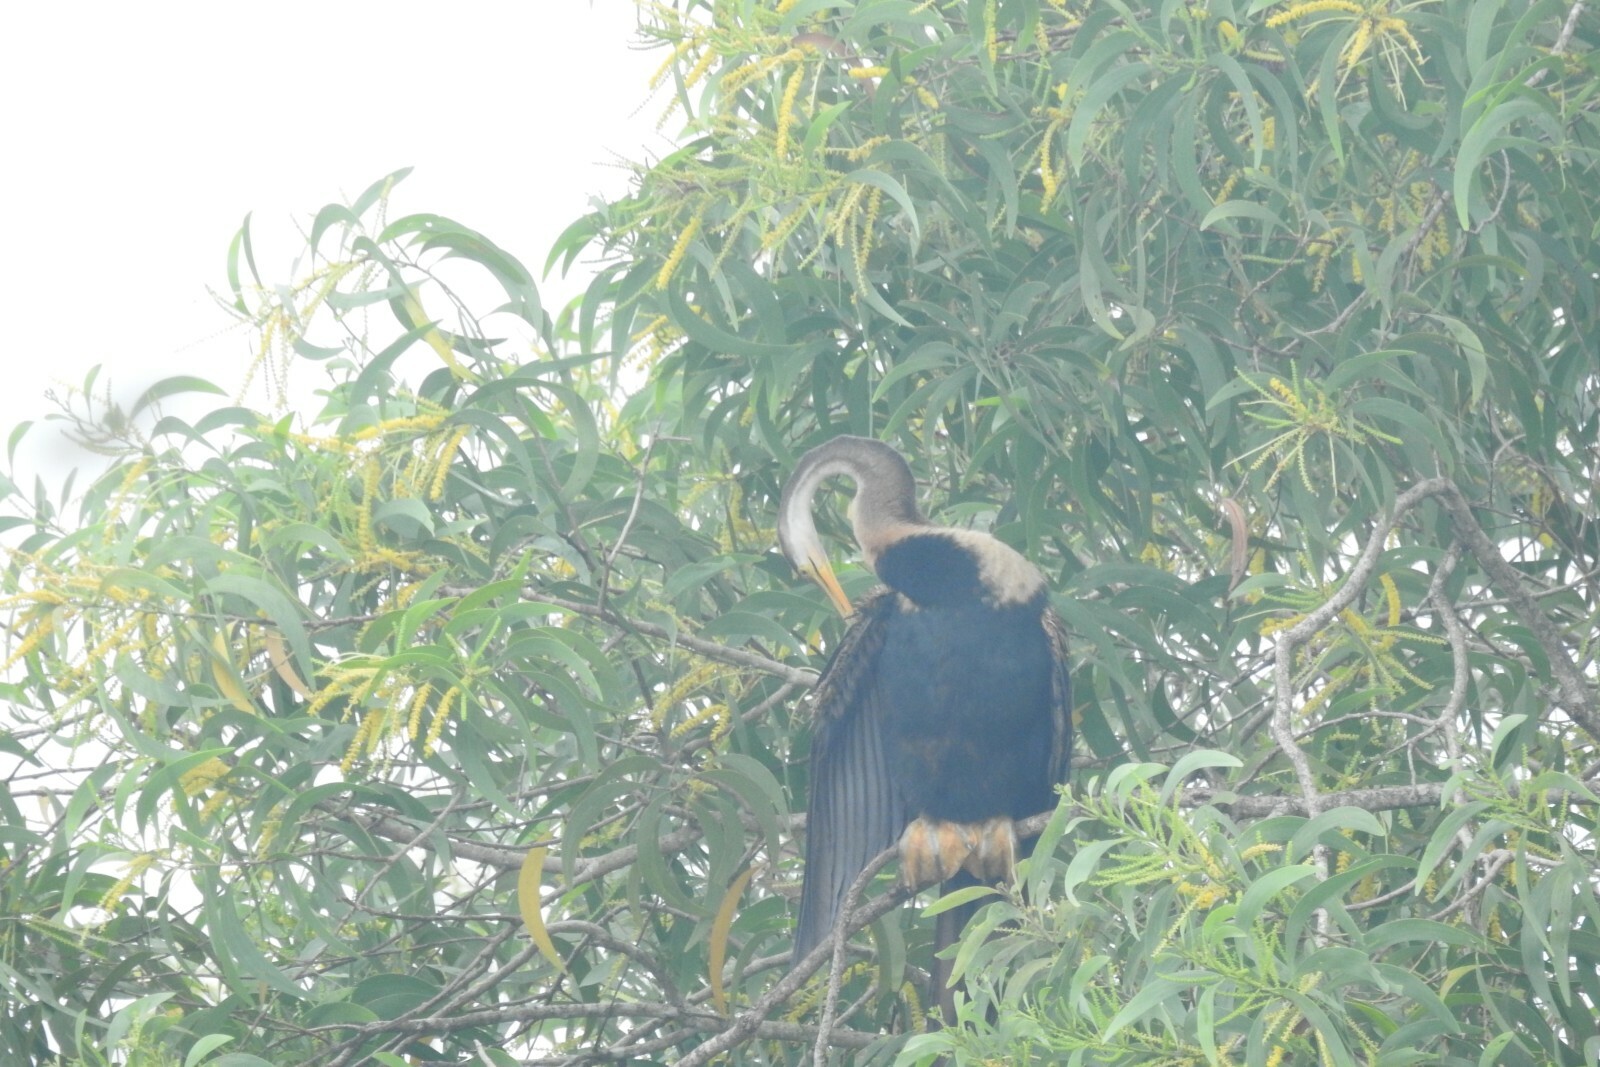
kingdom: Animalia
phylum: Chordata
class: Aves
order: Suliformes
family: Anhingidae
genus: Anhinga
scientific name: Anhinga melanogaster
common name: Oriental darter
